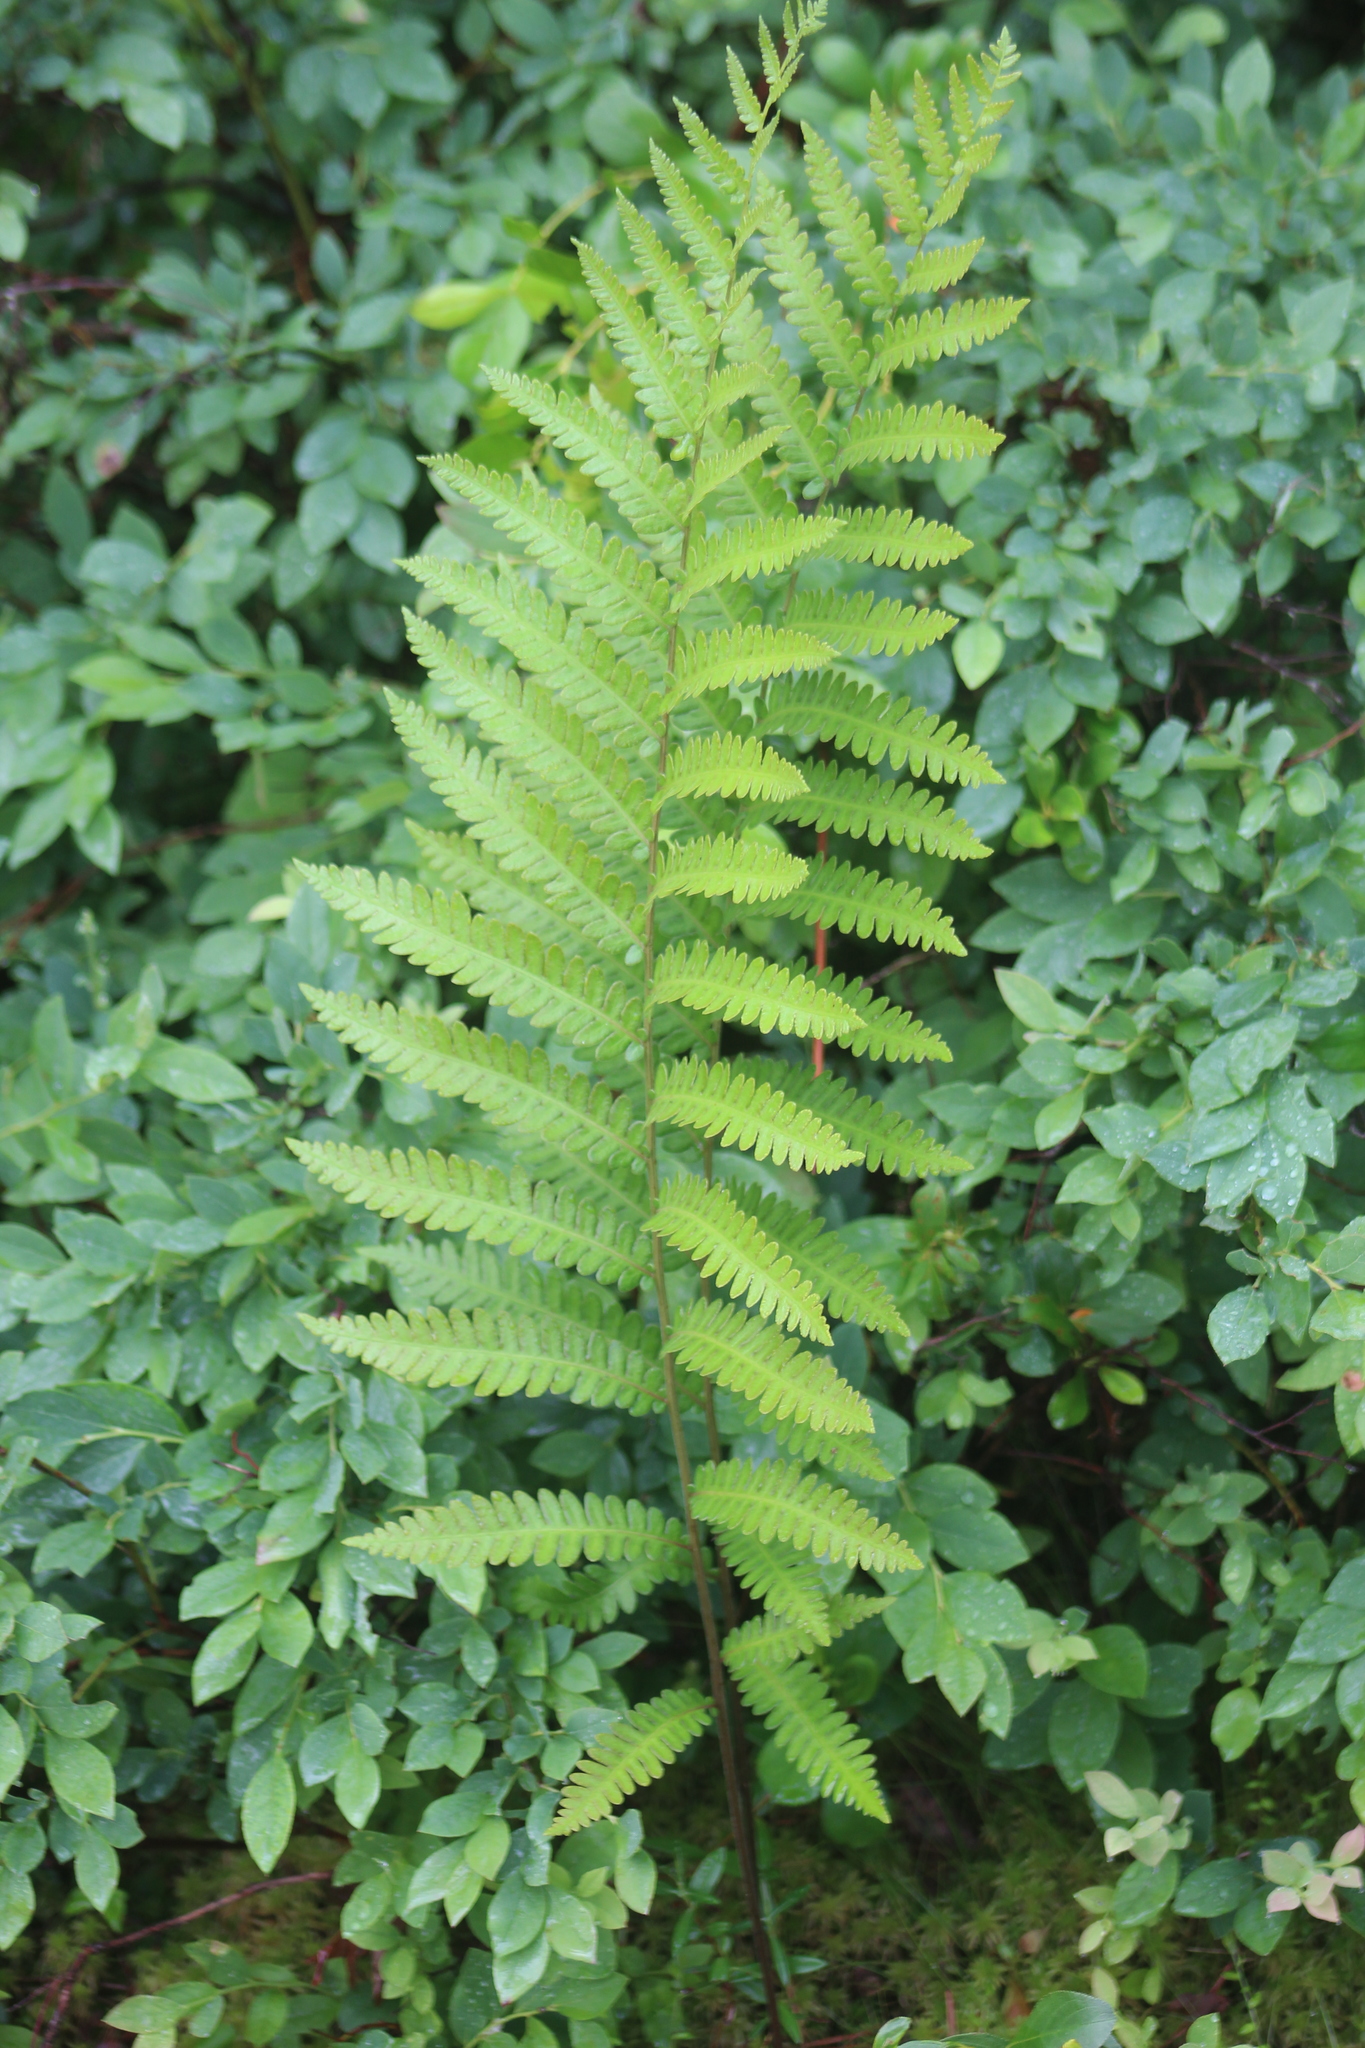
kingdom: Plantae
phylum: Tracheophyta
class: Polypodiopsida
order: Polypodiales
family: Blechnaceae
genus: Anchistea
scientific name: Anchistea virginica
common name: Virginia chain fern
